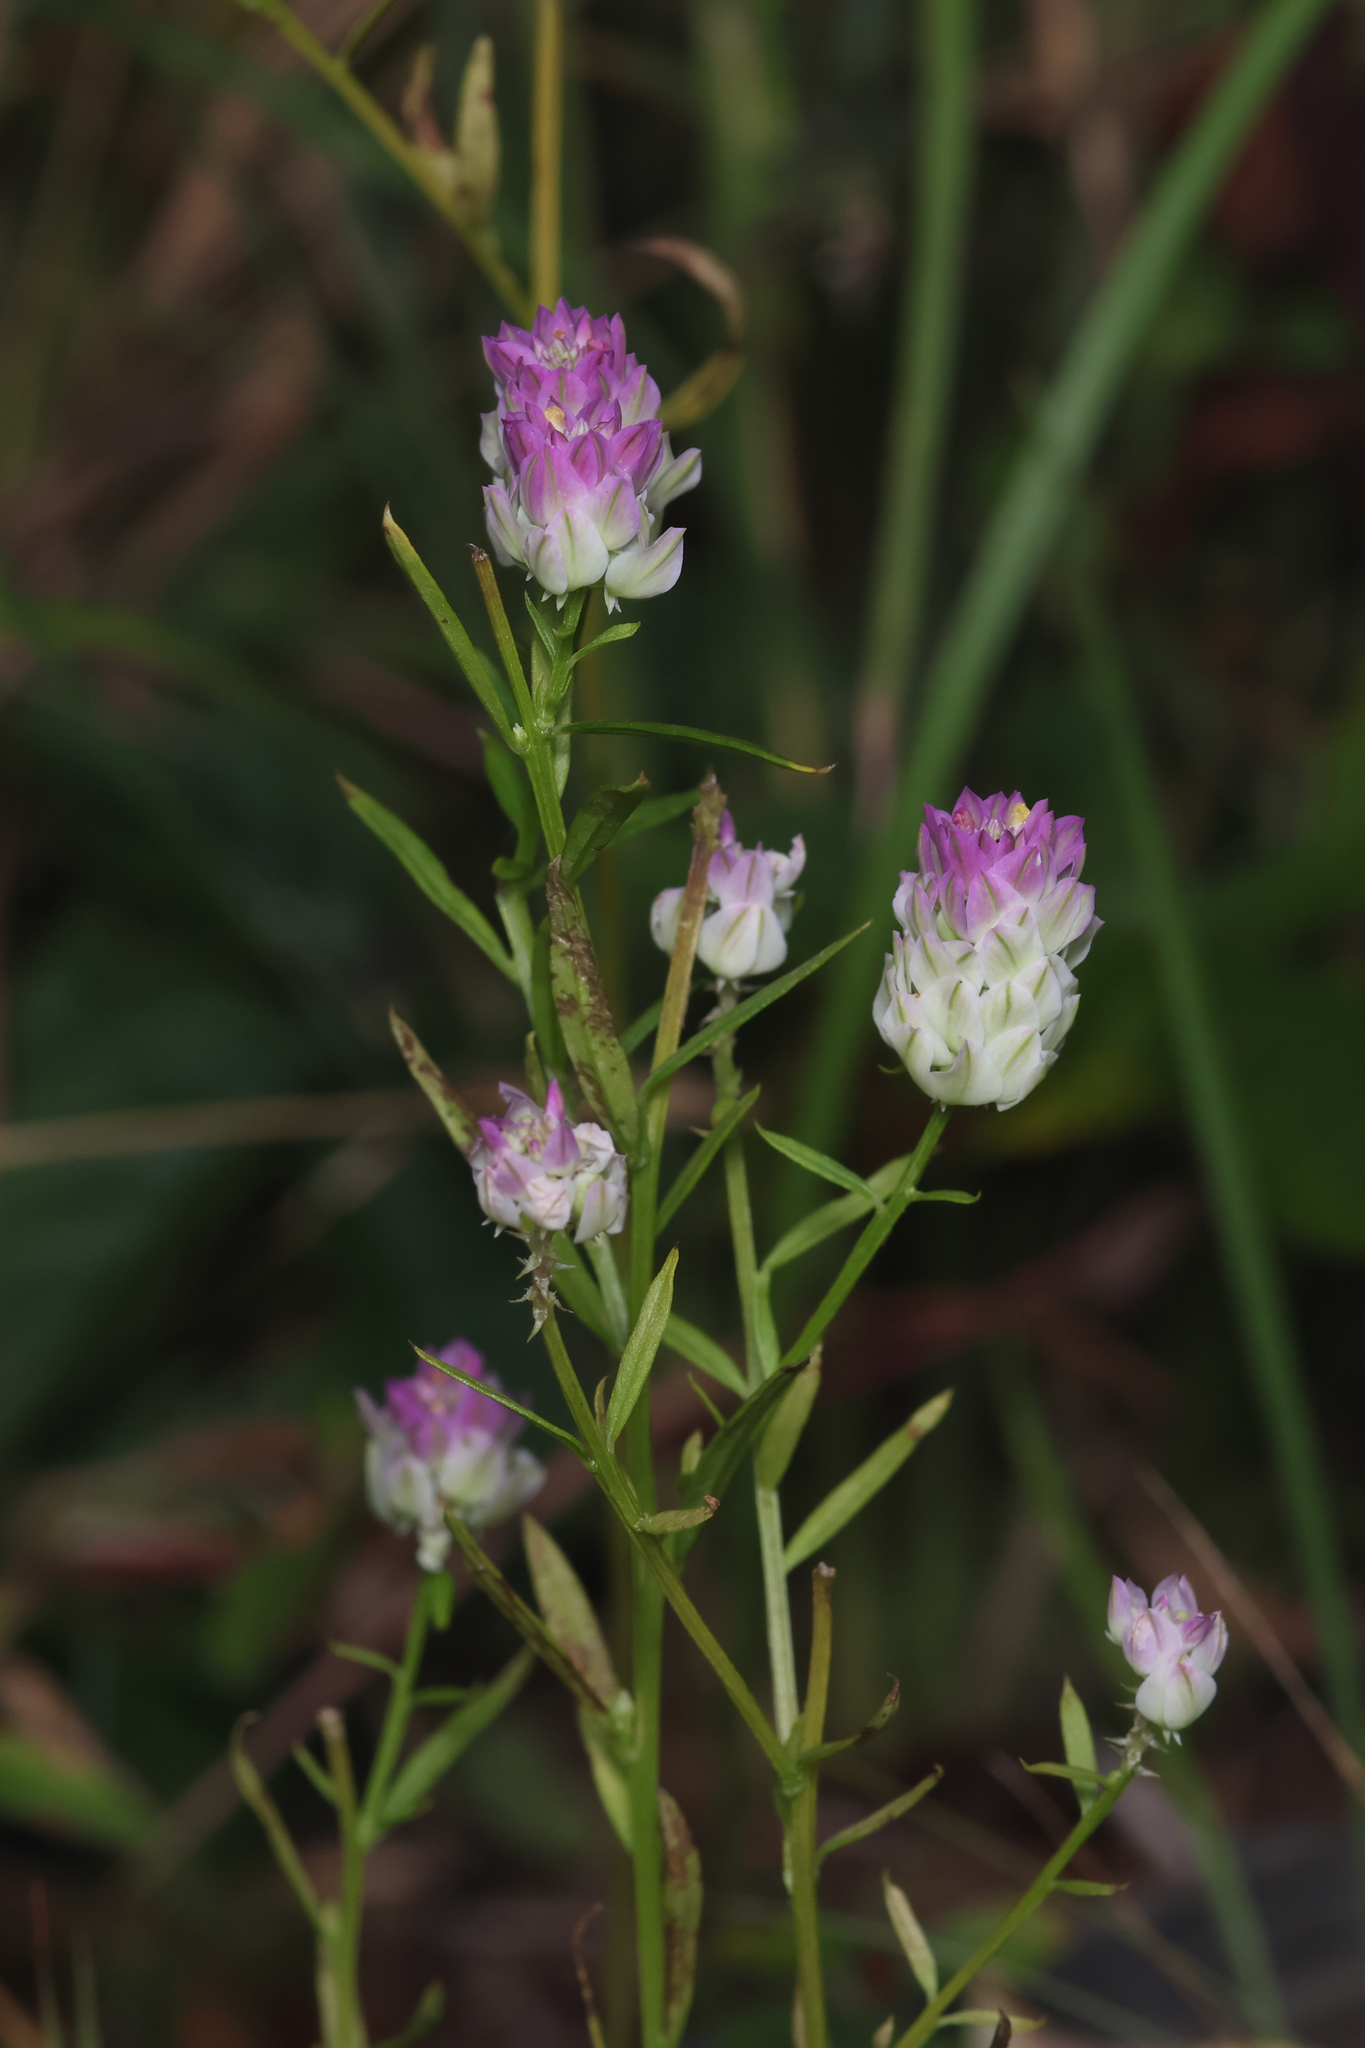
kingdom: Plantae
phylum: Tracheophyta
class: Magnoliopsida
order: Fabales
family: Polygalaceae
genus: Polygala
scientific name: Polygala sanguinea
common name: Blood milkwort
